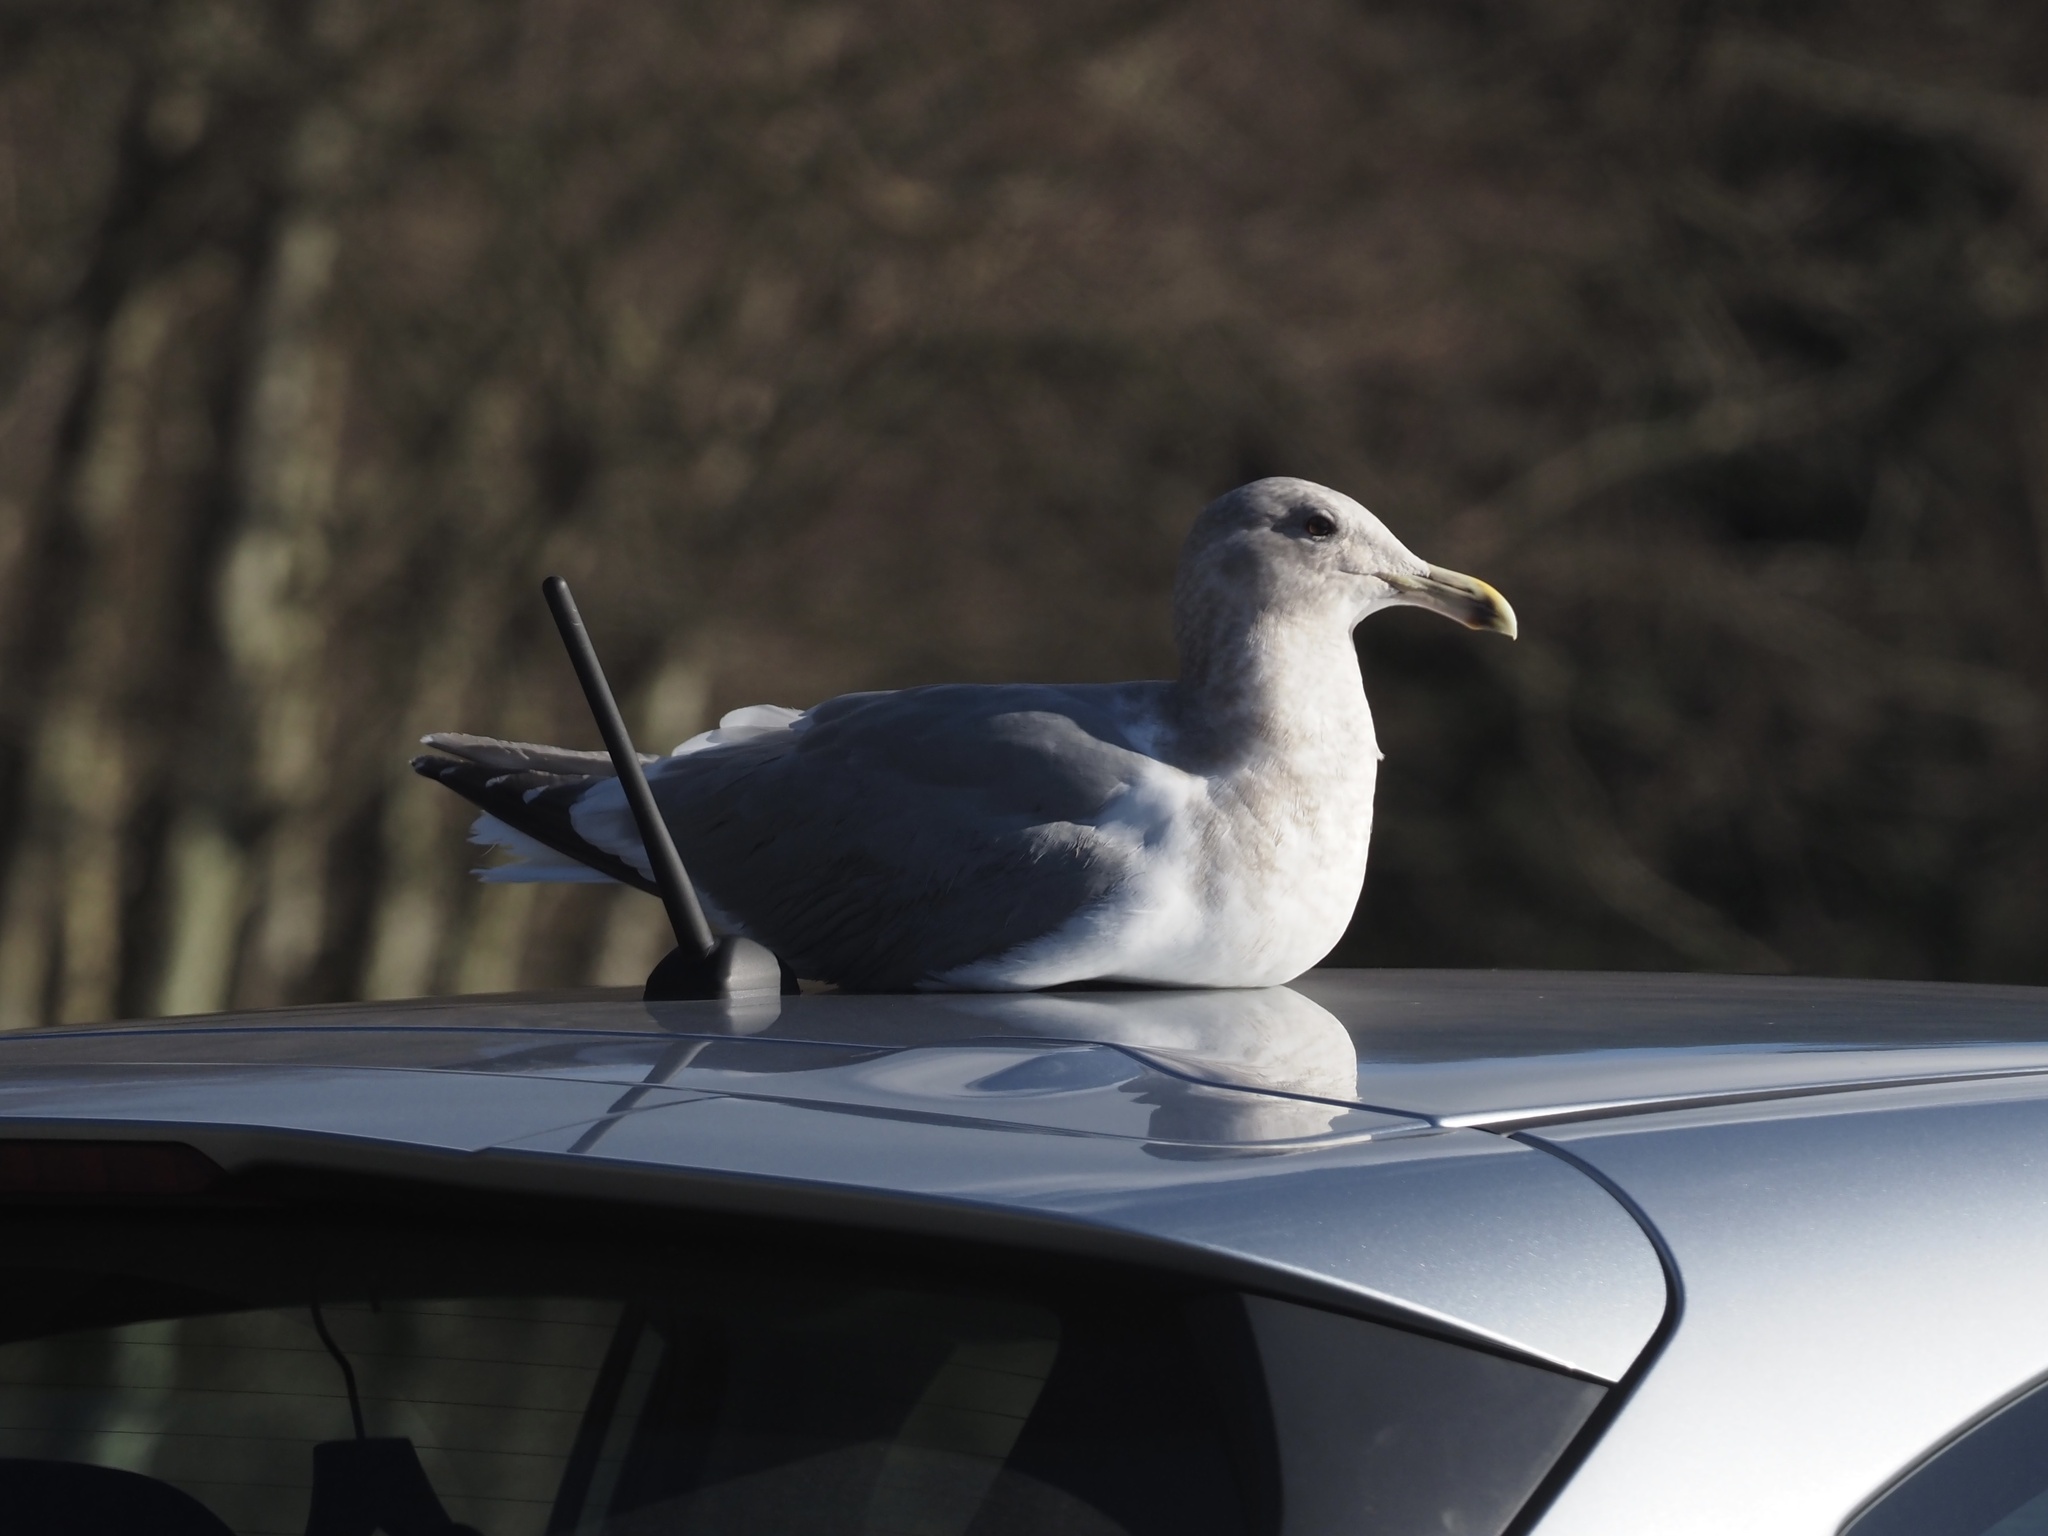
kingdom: Animalia
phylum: Chordata
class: Aves
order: Charadriiformes
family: Laridae
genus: Larus
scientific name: Larus
